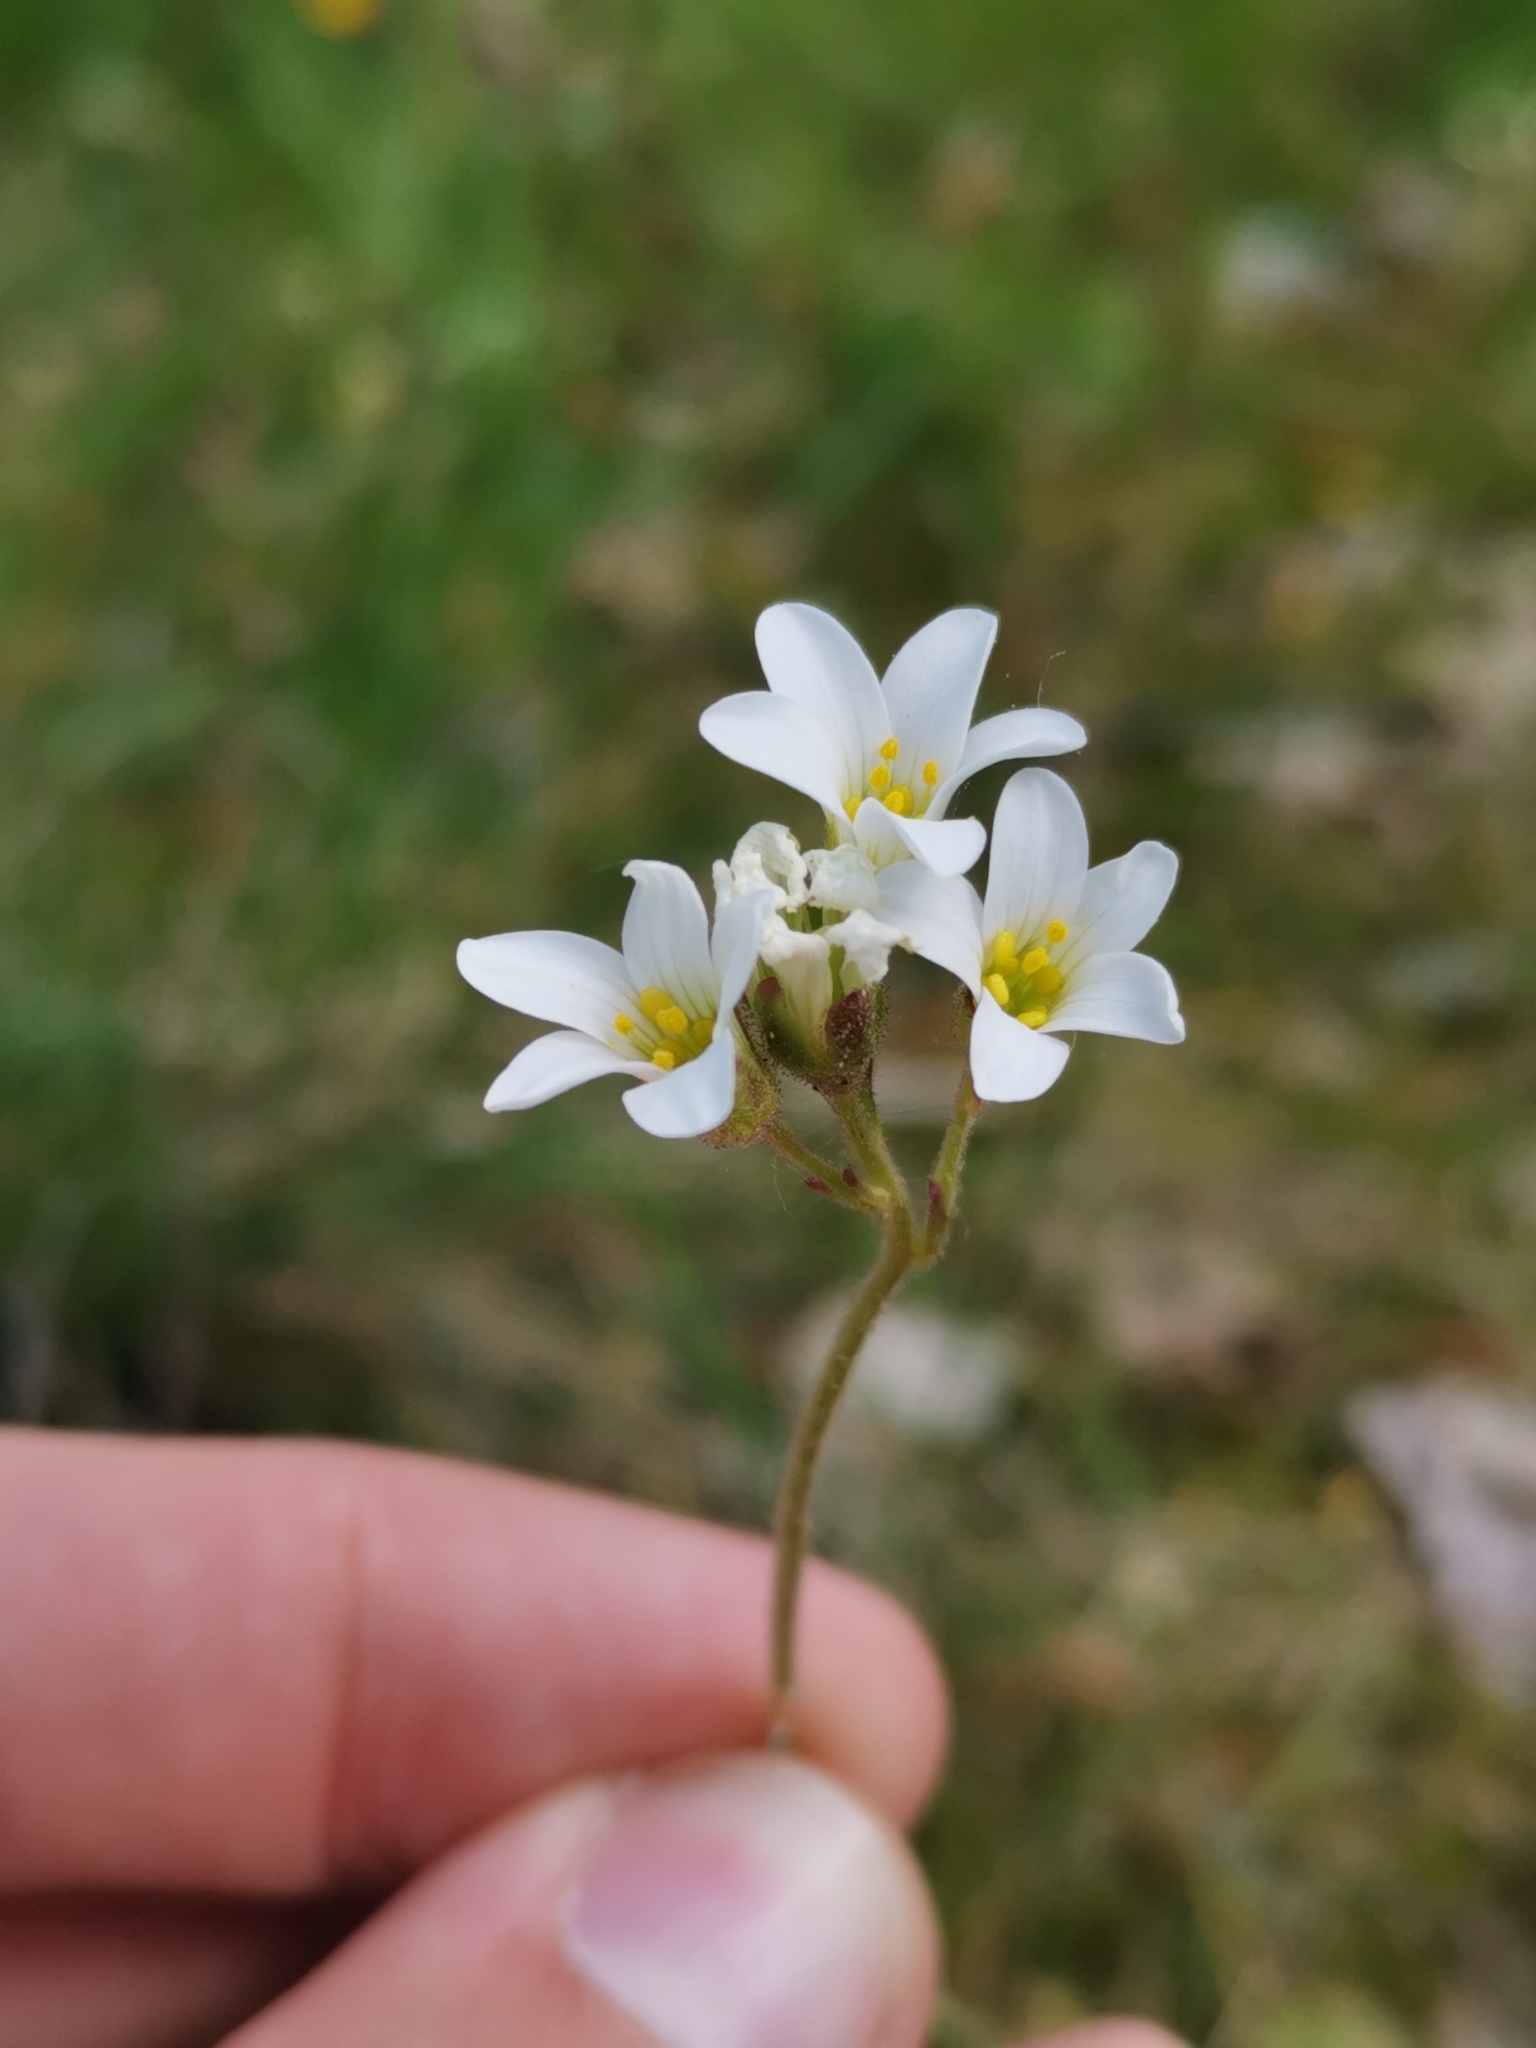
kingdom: Plantae
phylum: Tracheophyta
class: Magnoliopsida
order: Saxifragales
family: Saxifragaceae
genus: Saxifraga
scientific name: Saxifraga granulata
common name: Meadow saxifrage
